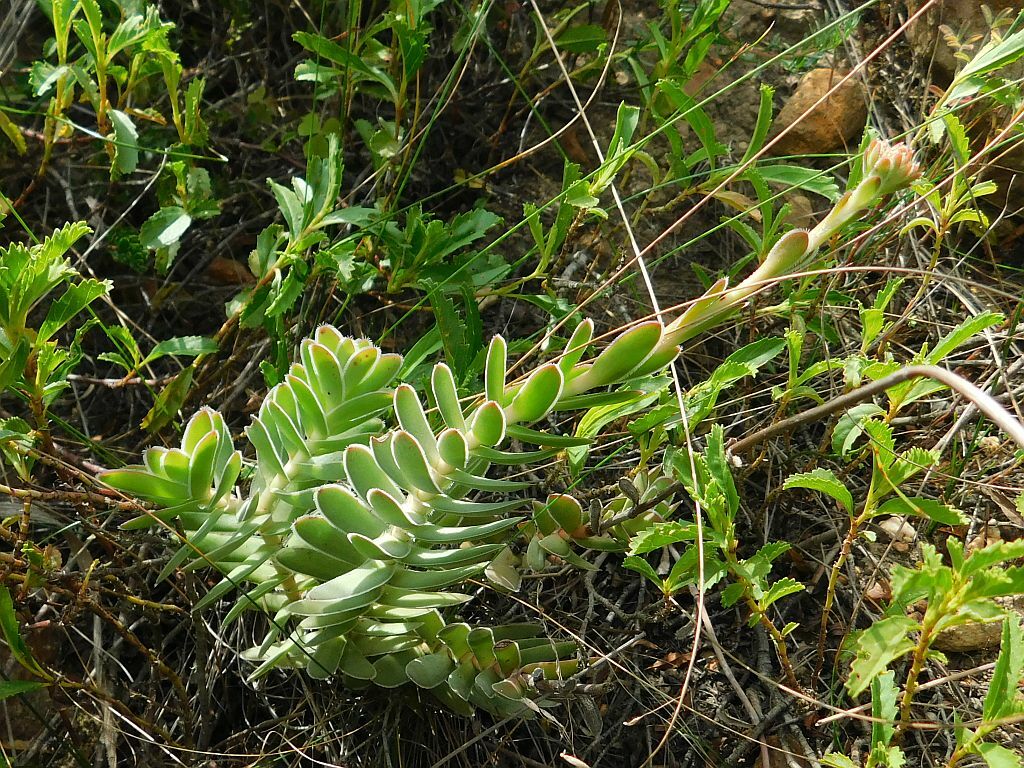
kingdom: Plantae
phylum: Tracheophyta
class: Magnoliopsida
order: Saxifragales
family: Crassulaceae
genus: Crassula
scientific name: Crassula ciliata
